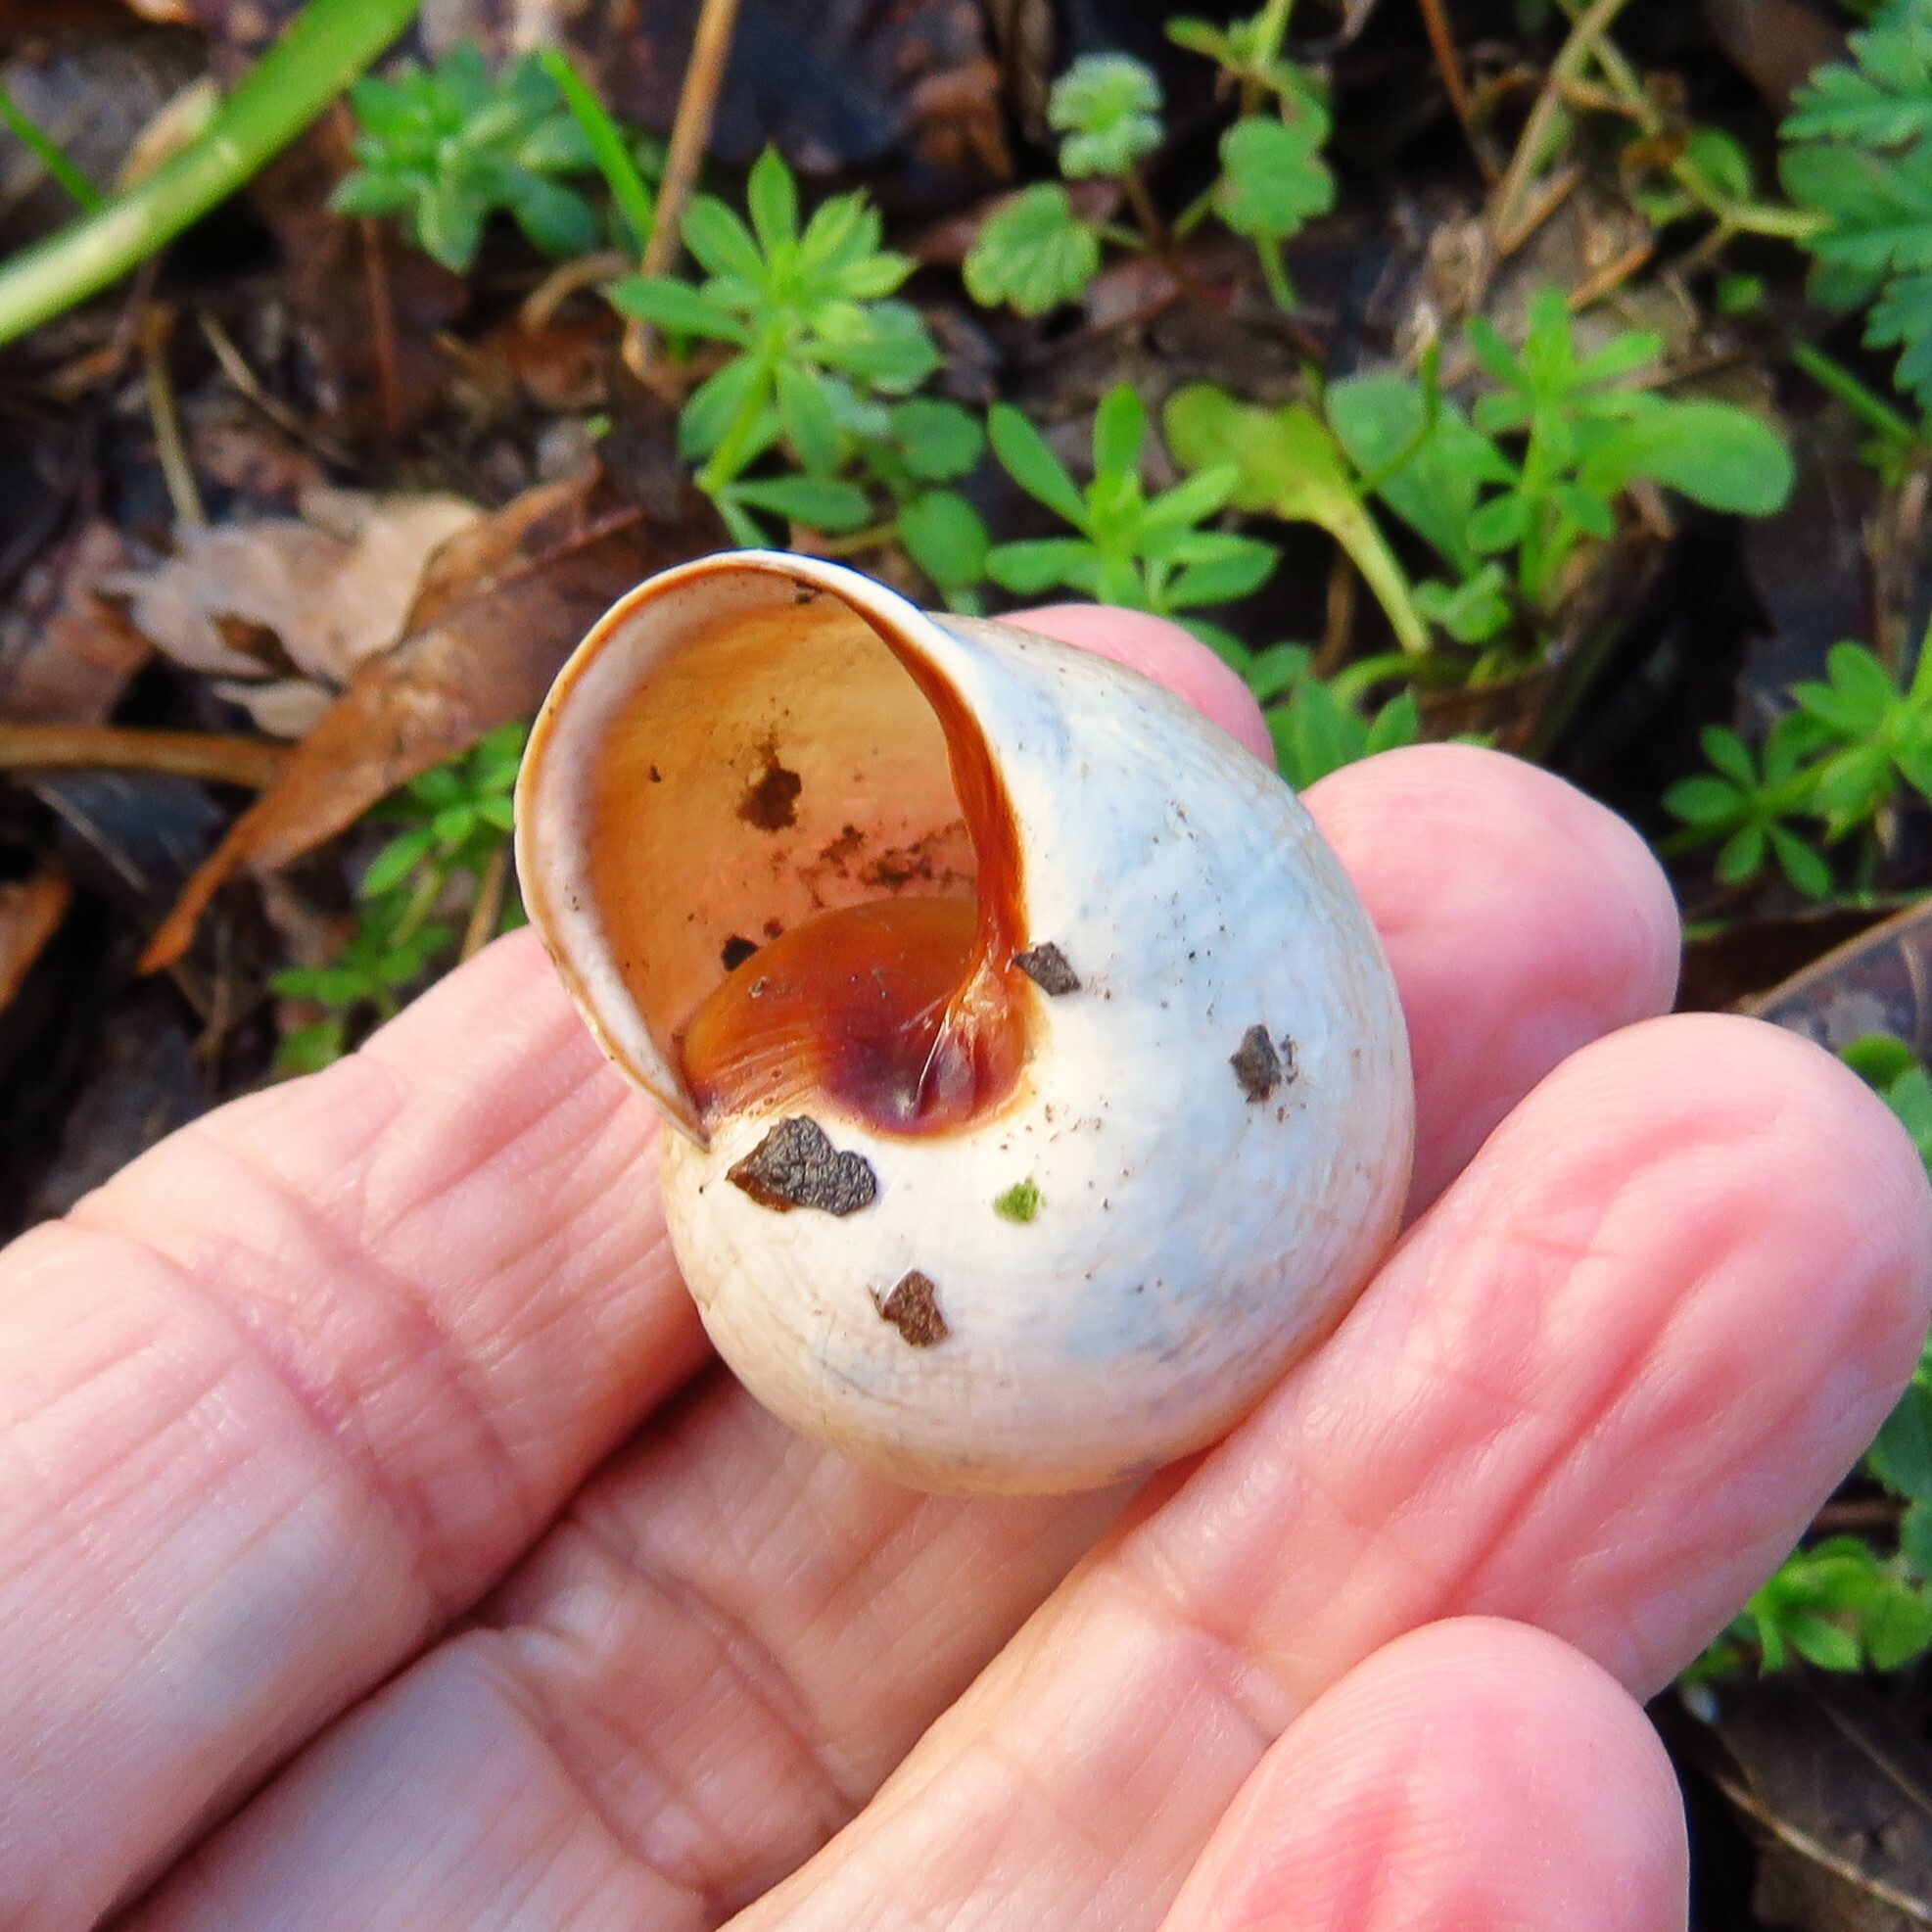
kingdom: Animalia
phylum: Mollusca
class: Gastropoda
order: Stylommatophora
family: Helicidae
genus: Otala
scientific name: Otala lactea
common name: Milk snail
